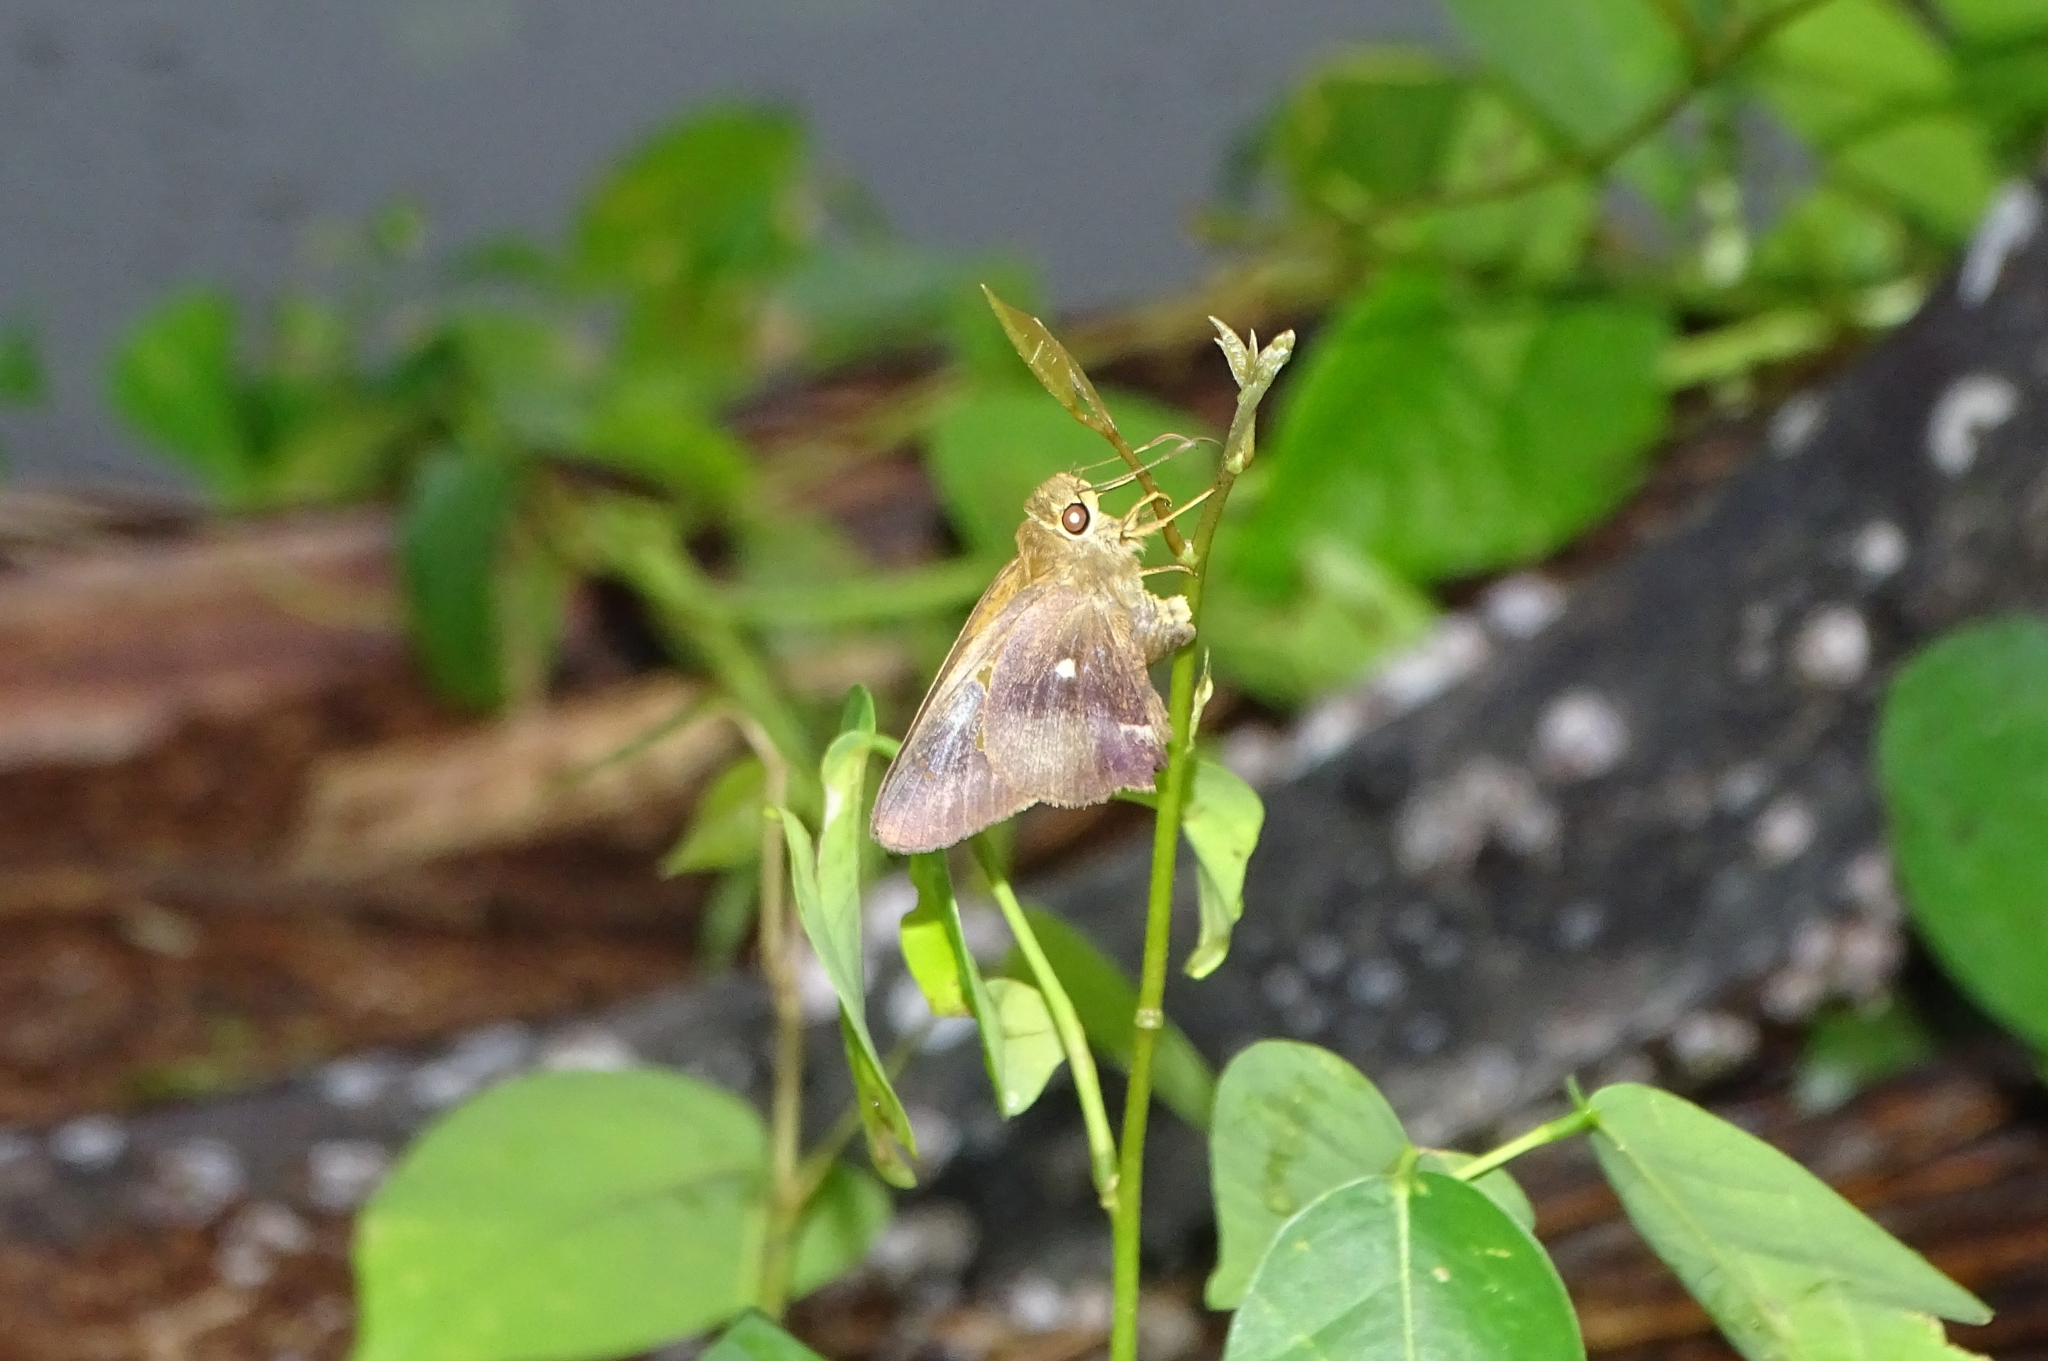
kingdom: Animalia
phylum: Arthropoda
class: Insecta
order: Lepidoptera
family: Hesperiidae
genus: Hasora
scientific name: Hasora badra
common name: Common awl
